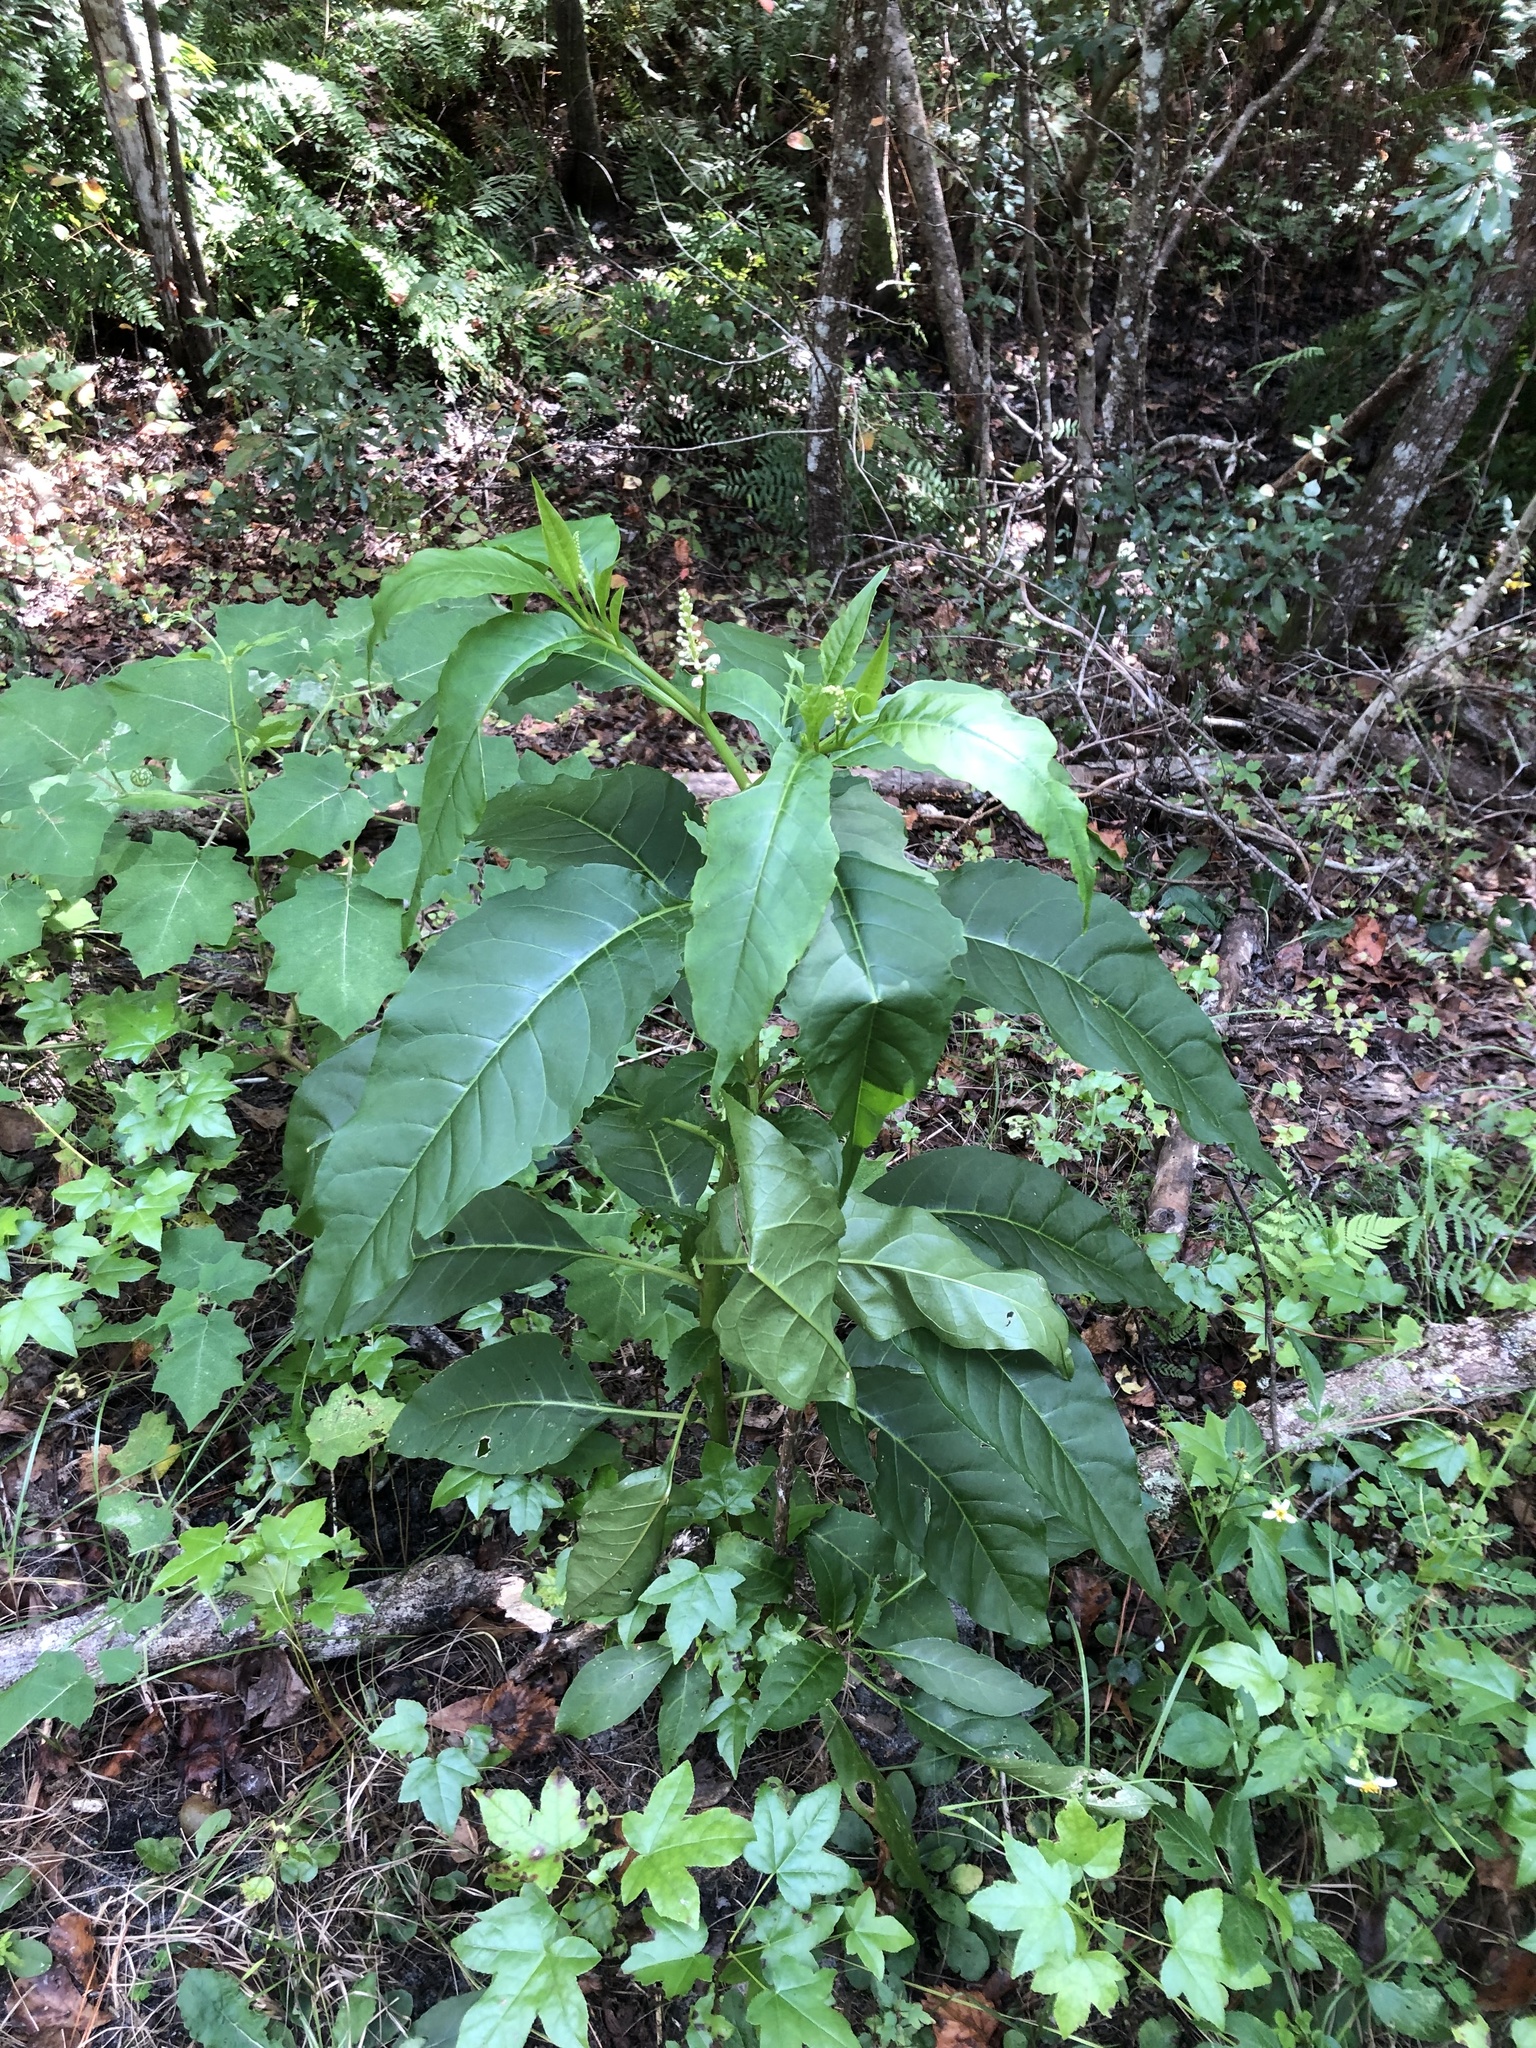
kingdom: Plantae
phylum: Tracheophyta
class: Magnoliopsida
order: Caryophyllales
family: Phytolaccaceae
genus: Phytolacca
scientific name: Phytolacca americana
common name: American pokeweed
